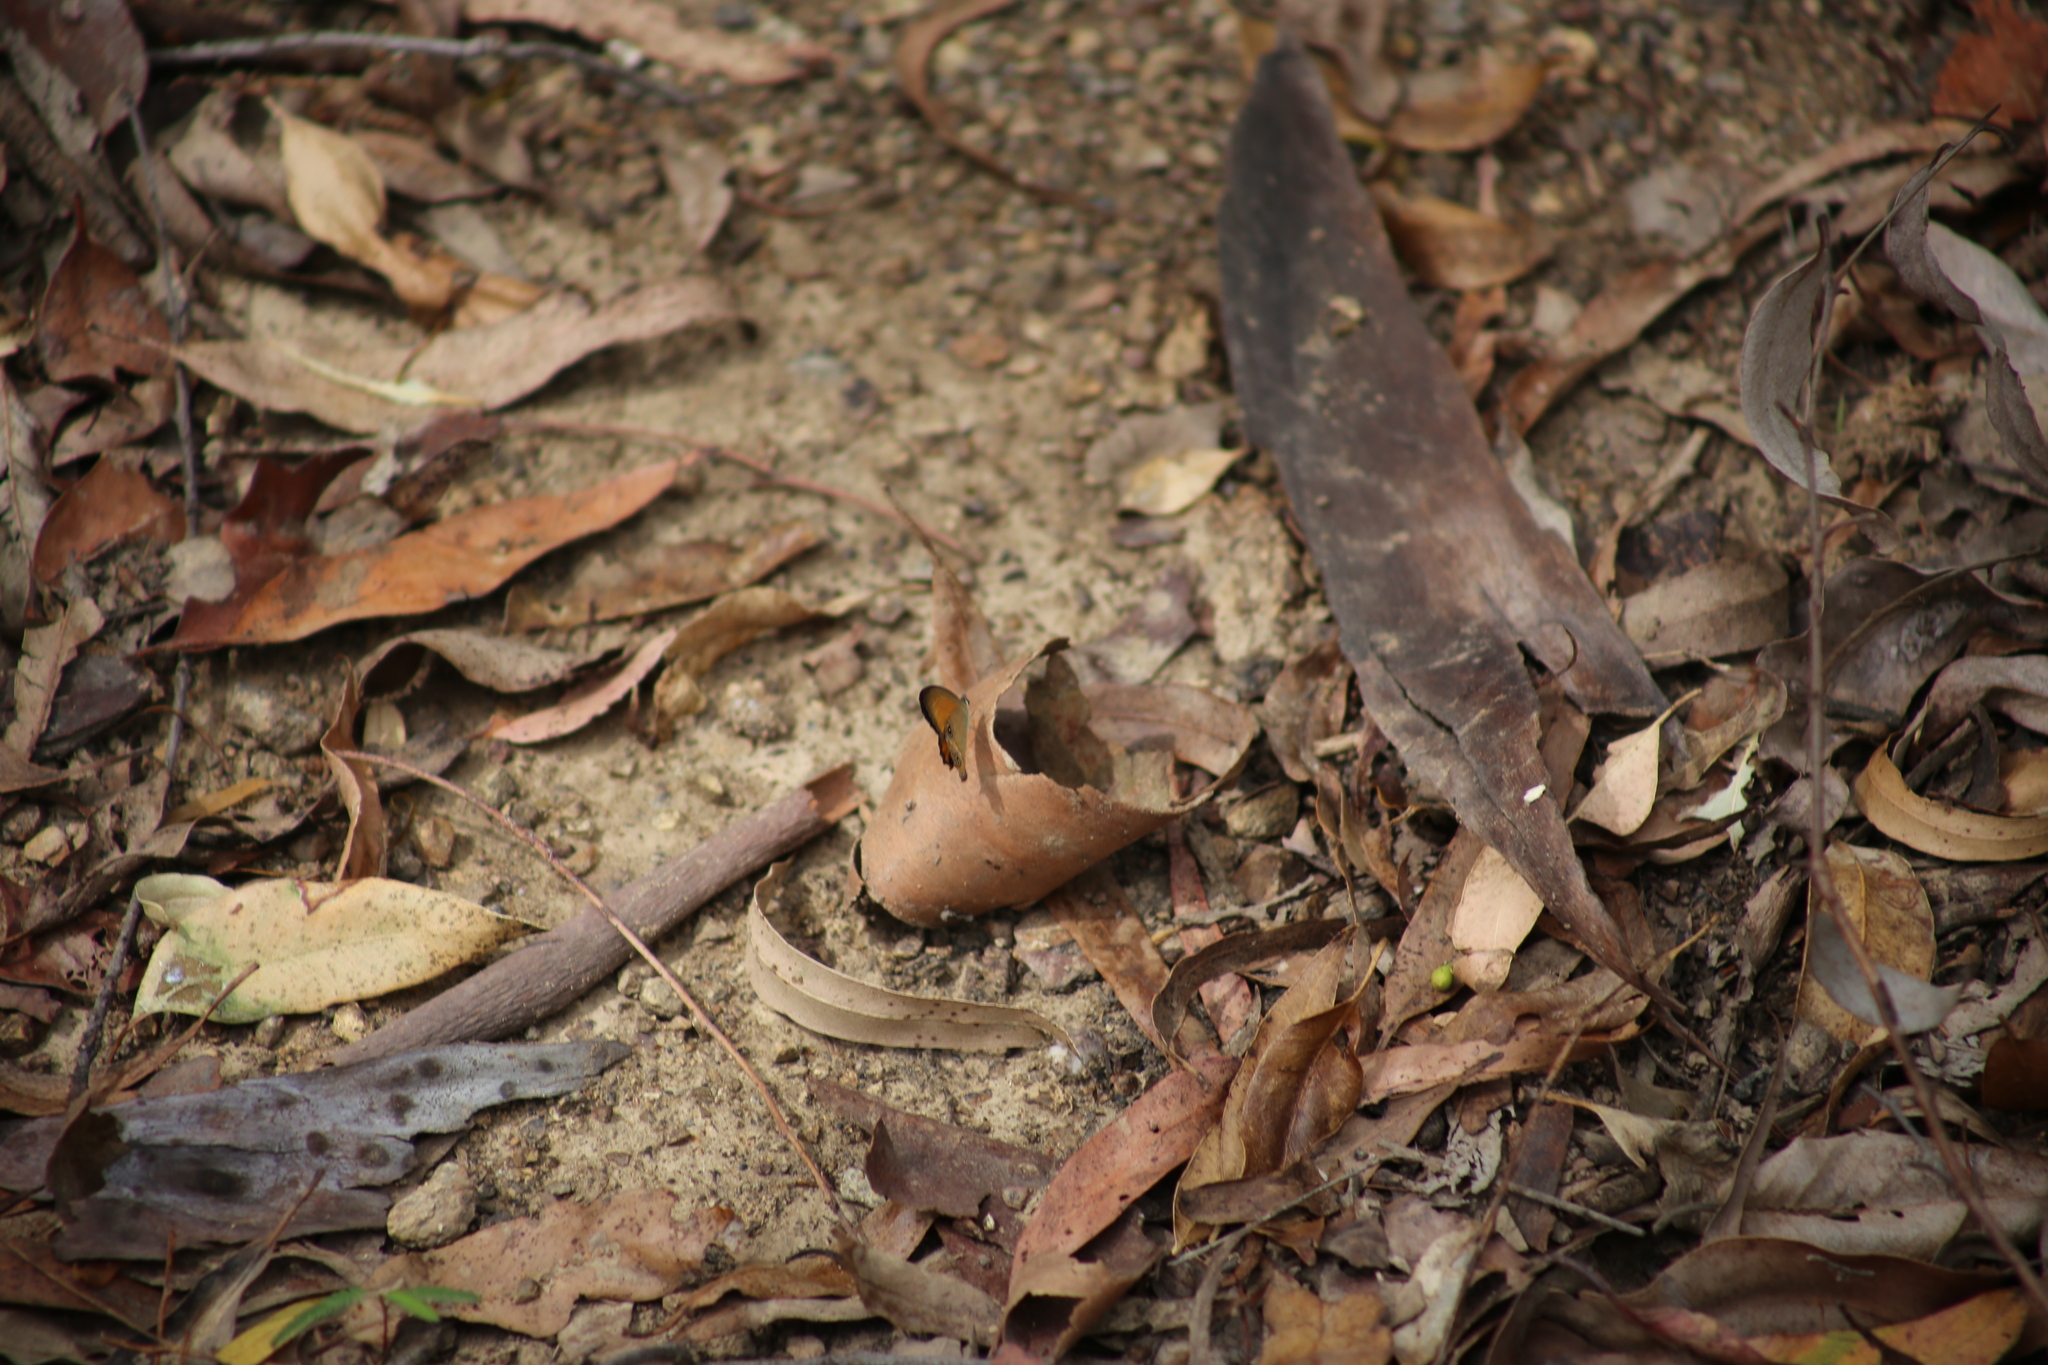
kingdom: Animalia
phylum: Arthropoda
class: Insecta
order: Lepidoptera
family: Nymphalidae
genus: Hypocysta
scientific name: Hypocysta adiante
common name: Orange ringlet
